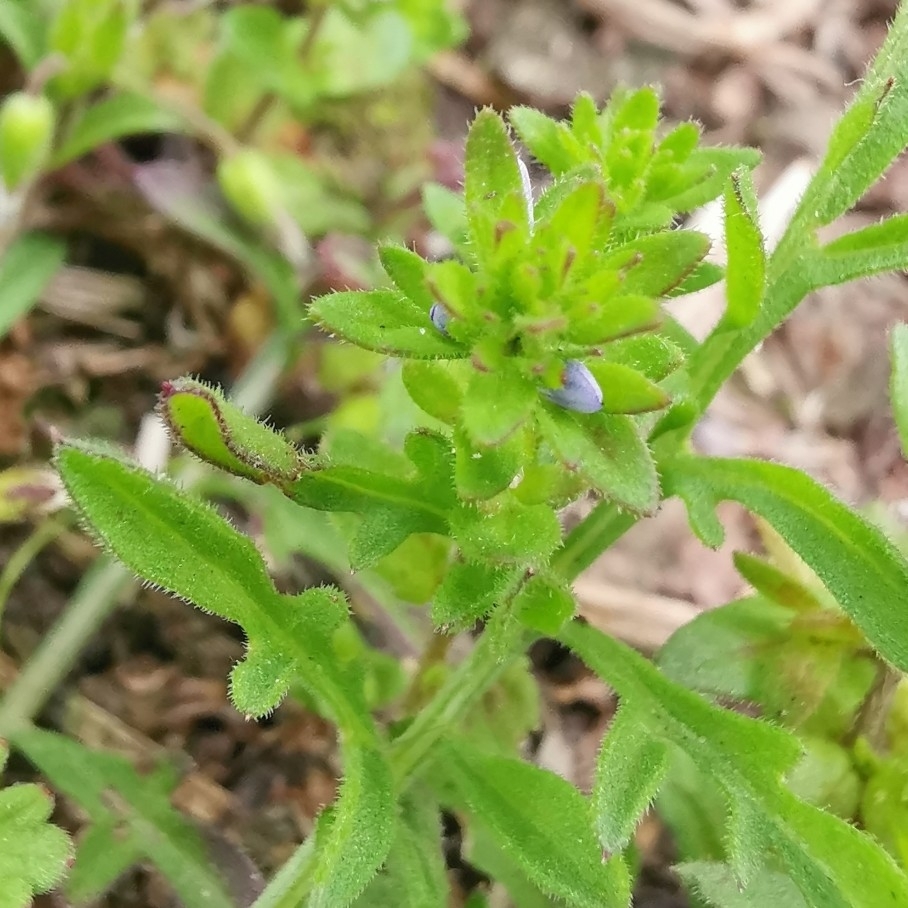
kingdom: Plantae
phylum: Tracheophyta
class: Magnoliopsida
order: Lamiales
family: Plantaginaceae
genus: Veronica
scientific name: Veronica arvensis
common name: Corn speedwell
